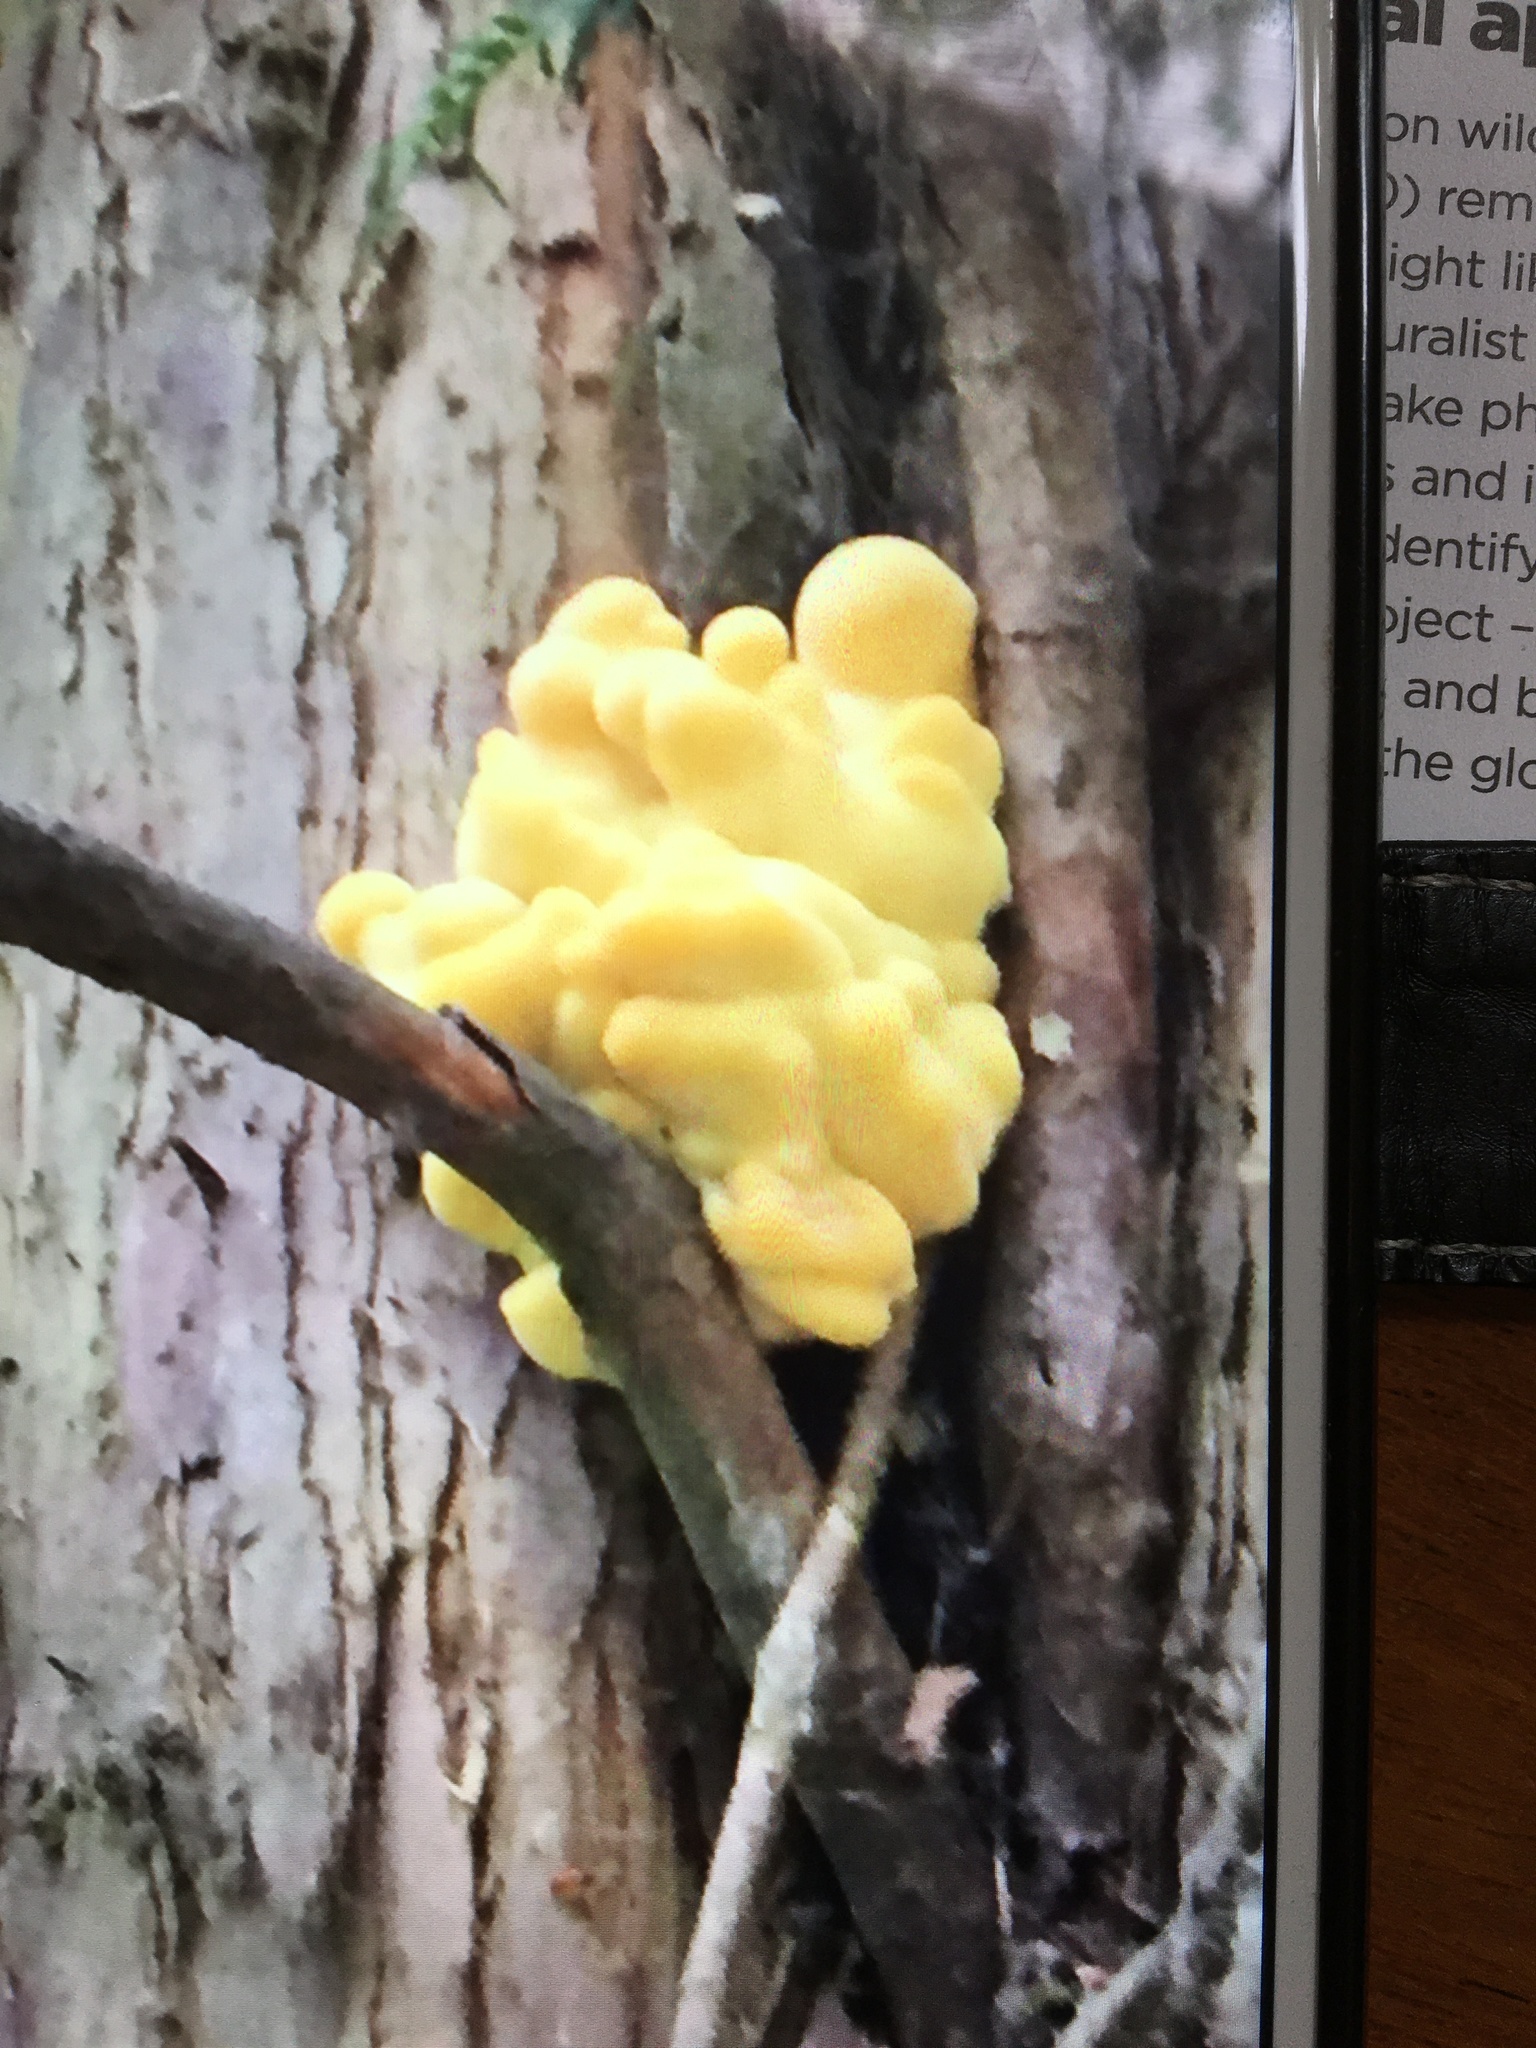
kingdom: Fungi
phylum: Basidiomycota
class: Agaricomycetes
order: Polyporales
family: Laetiporaceae
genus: Laetiporus
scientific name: Laetiporus sulphureus
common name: Chicken of the woods
